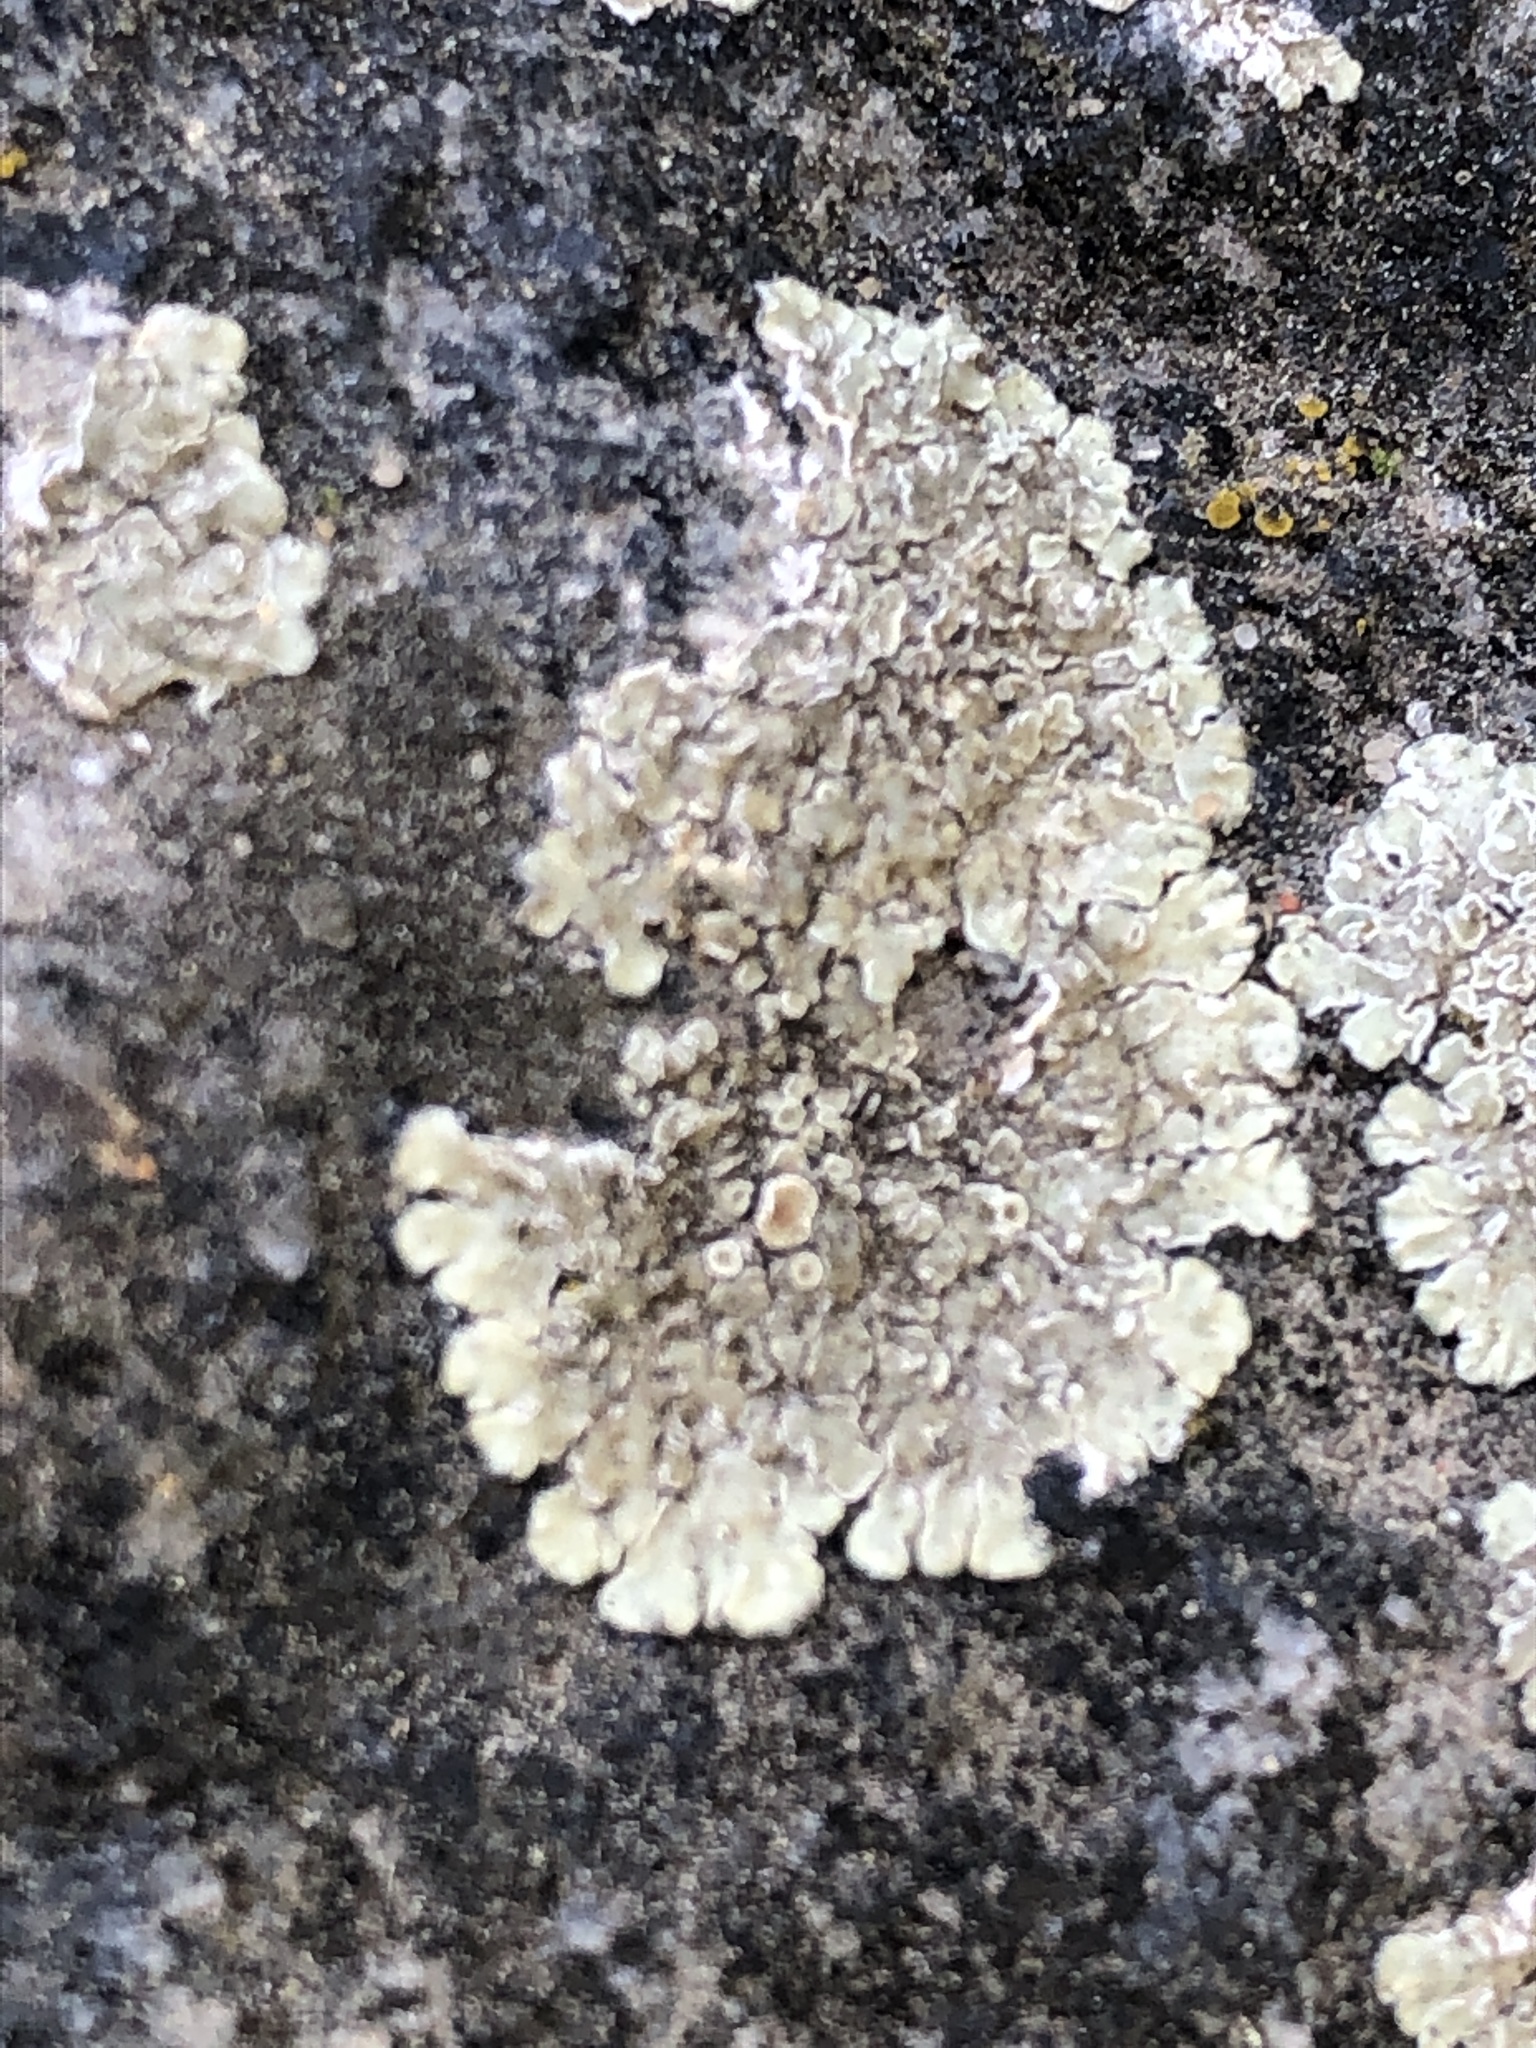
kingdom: Fungi
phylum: Ascomycota
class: Lecanoromycetes
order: Lecanorales
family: Lecanoraceae
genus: Protoparmeliopsis
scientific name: Protoparmeliopsis muralis
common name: Stonewall rim lichen
